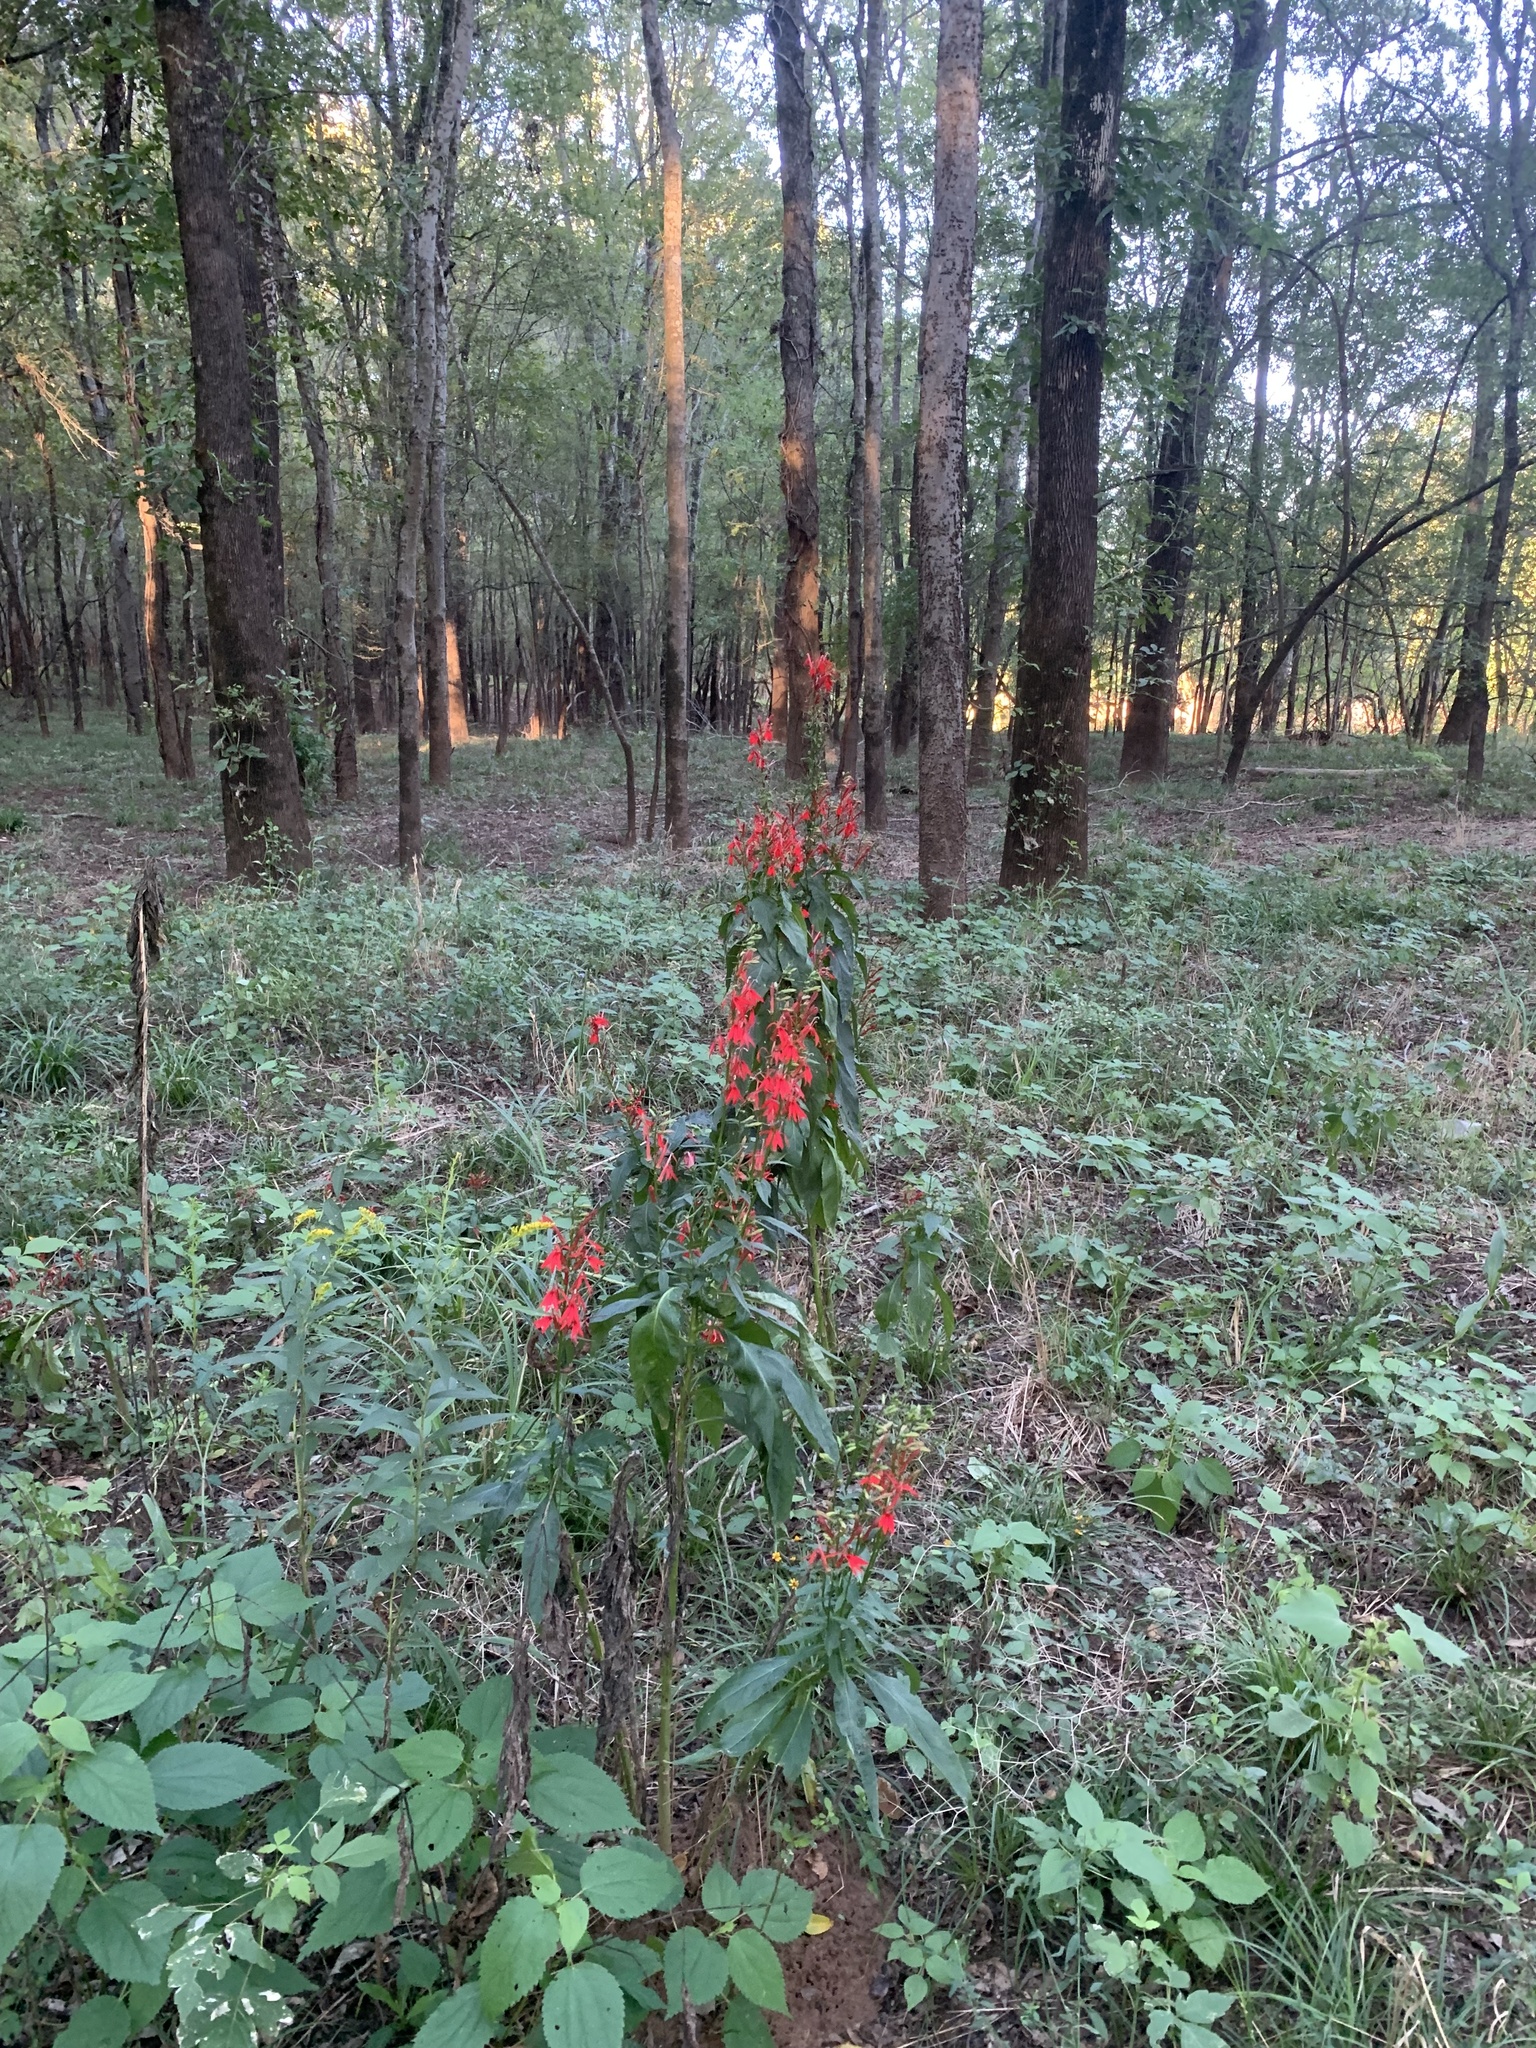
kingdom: Plantae
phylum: Tracheophyta
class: Magnoliopsida
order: Asterales
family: Campanulaceae
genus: Lobelia
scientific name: Lobelia cardinalis
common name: Cardinal flower
